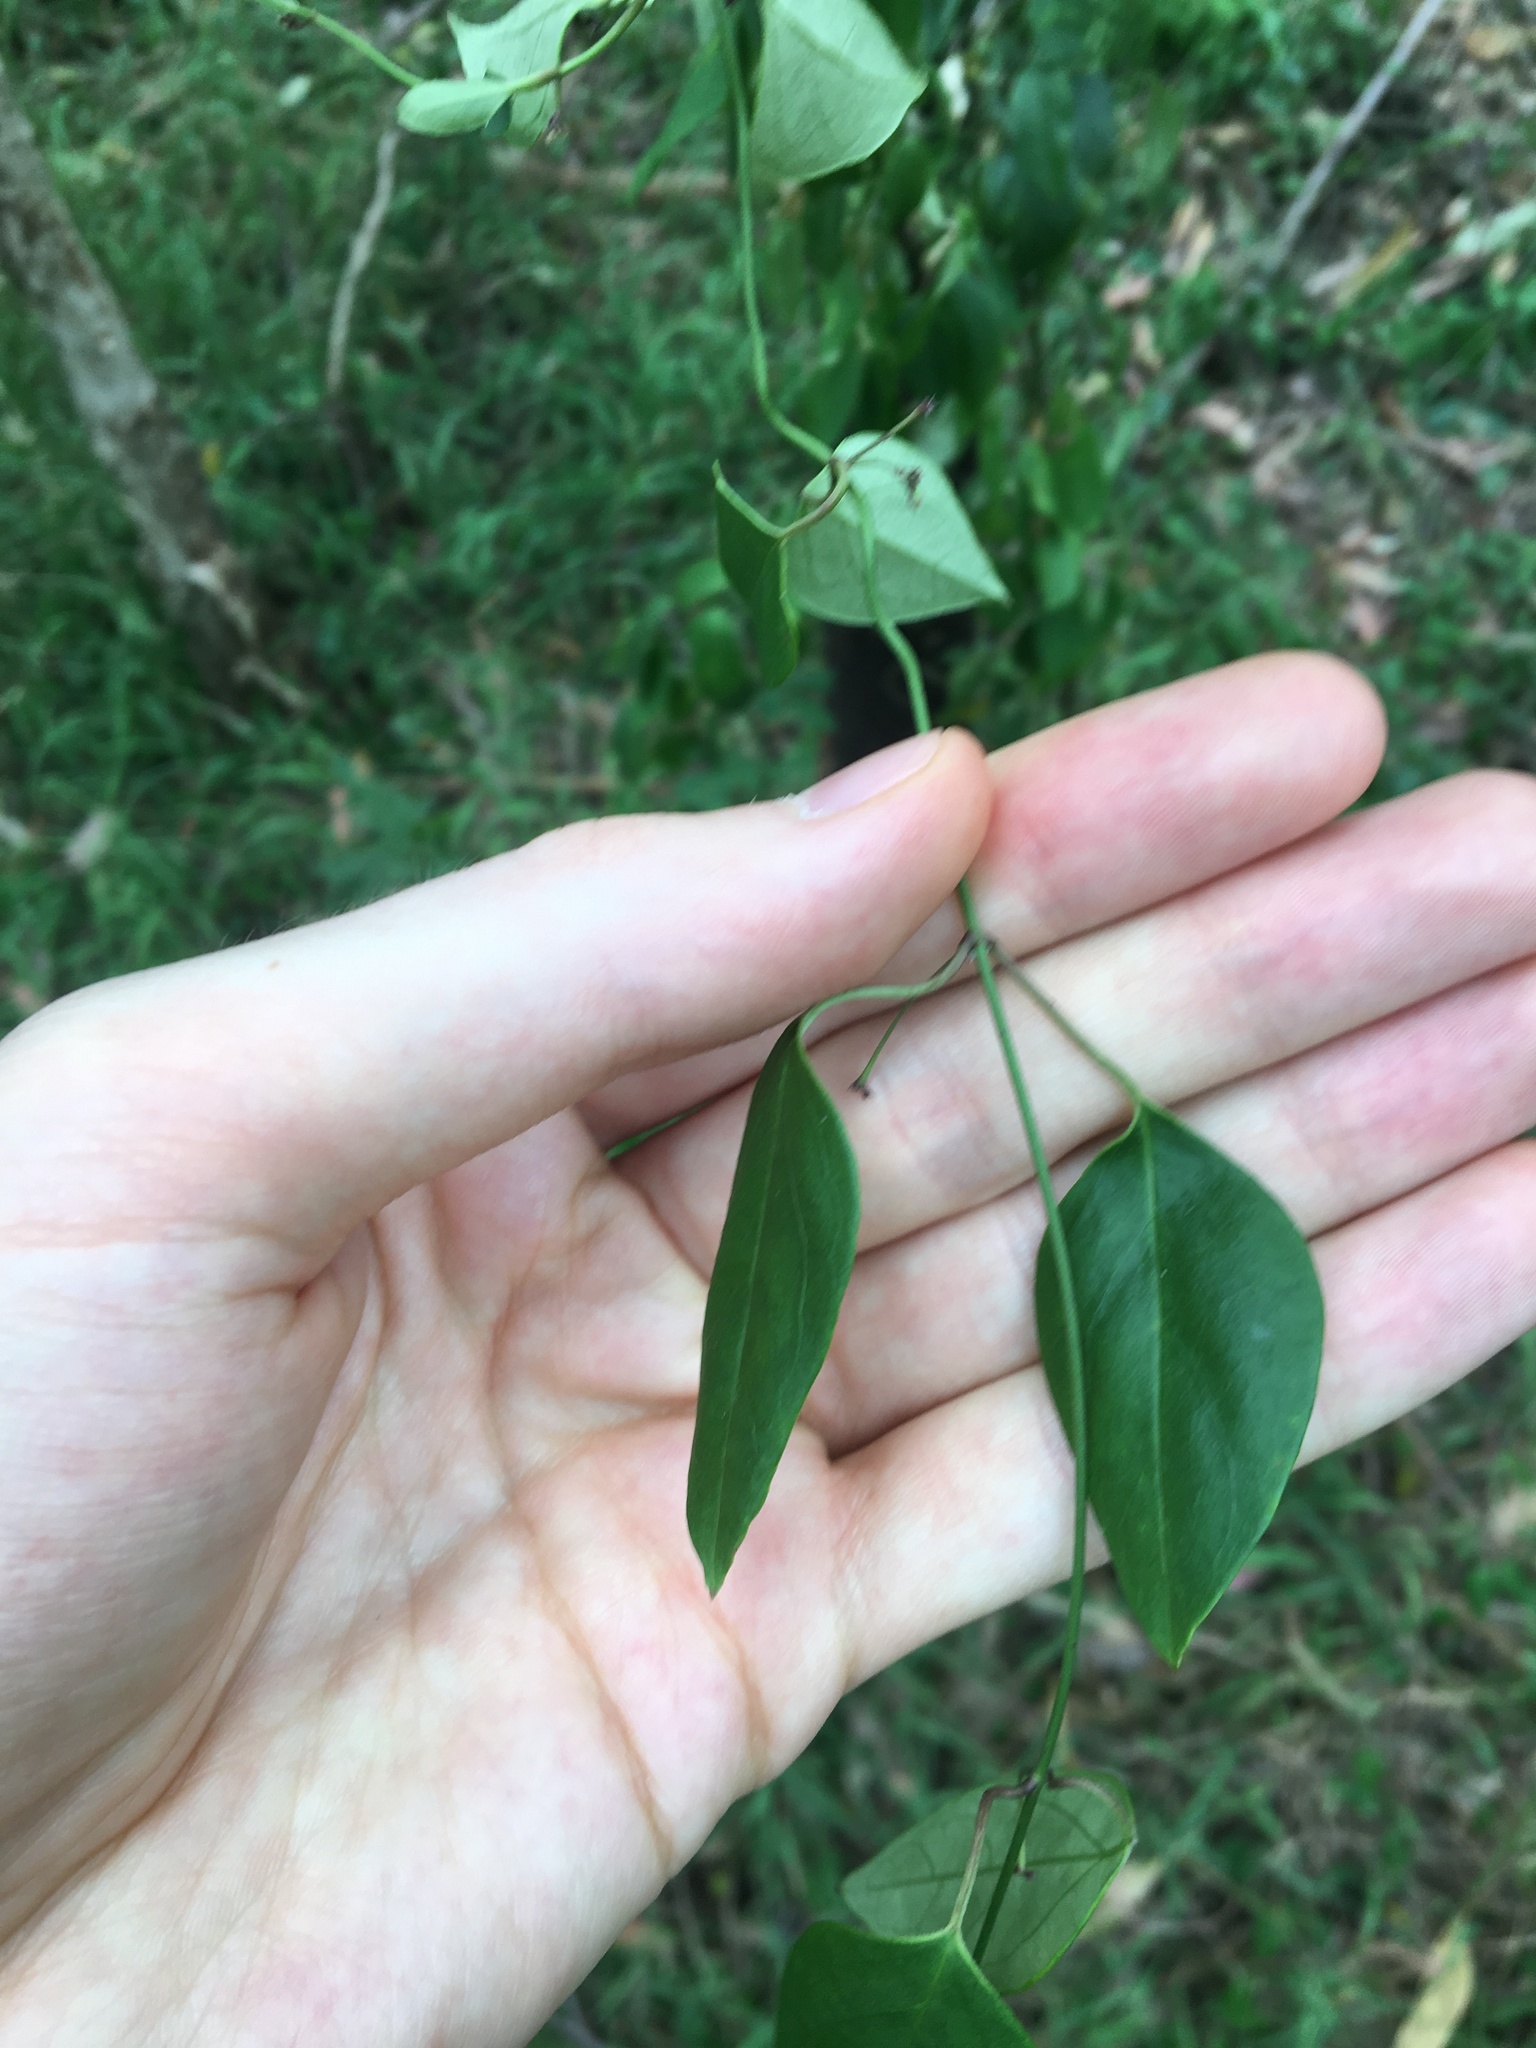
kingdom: Plantae
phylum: Tracheophyta
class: Magnoliopsida
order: Gentianales
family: Apocynaceae
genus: Vincetoxicum
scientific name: Vincetoxicum barbatum
